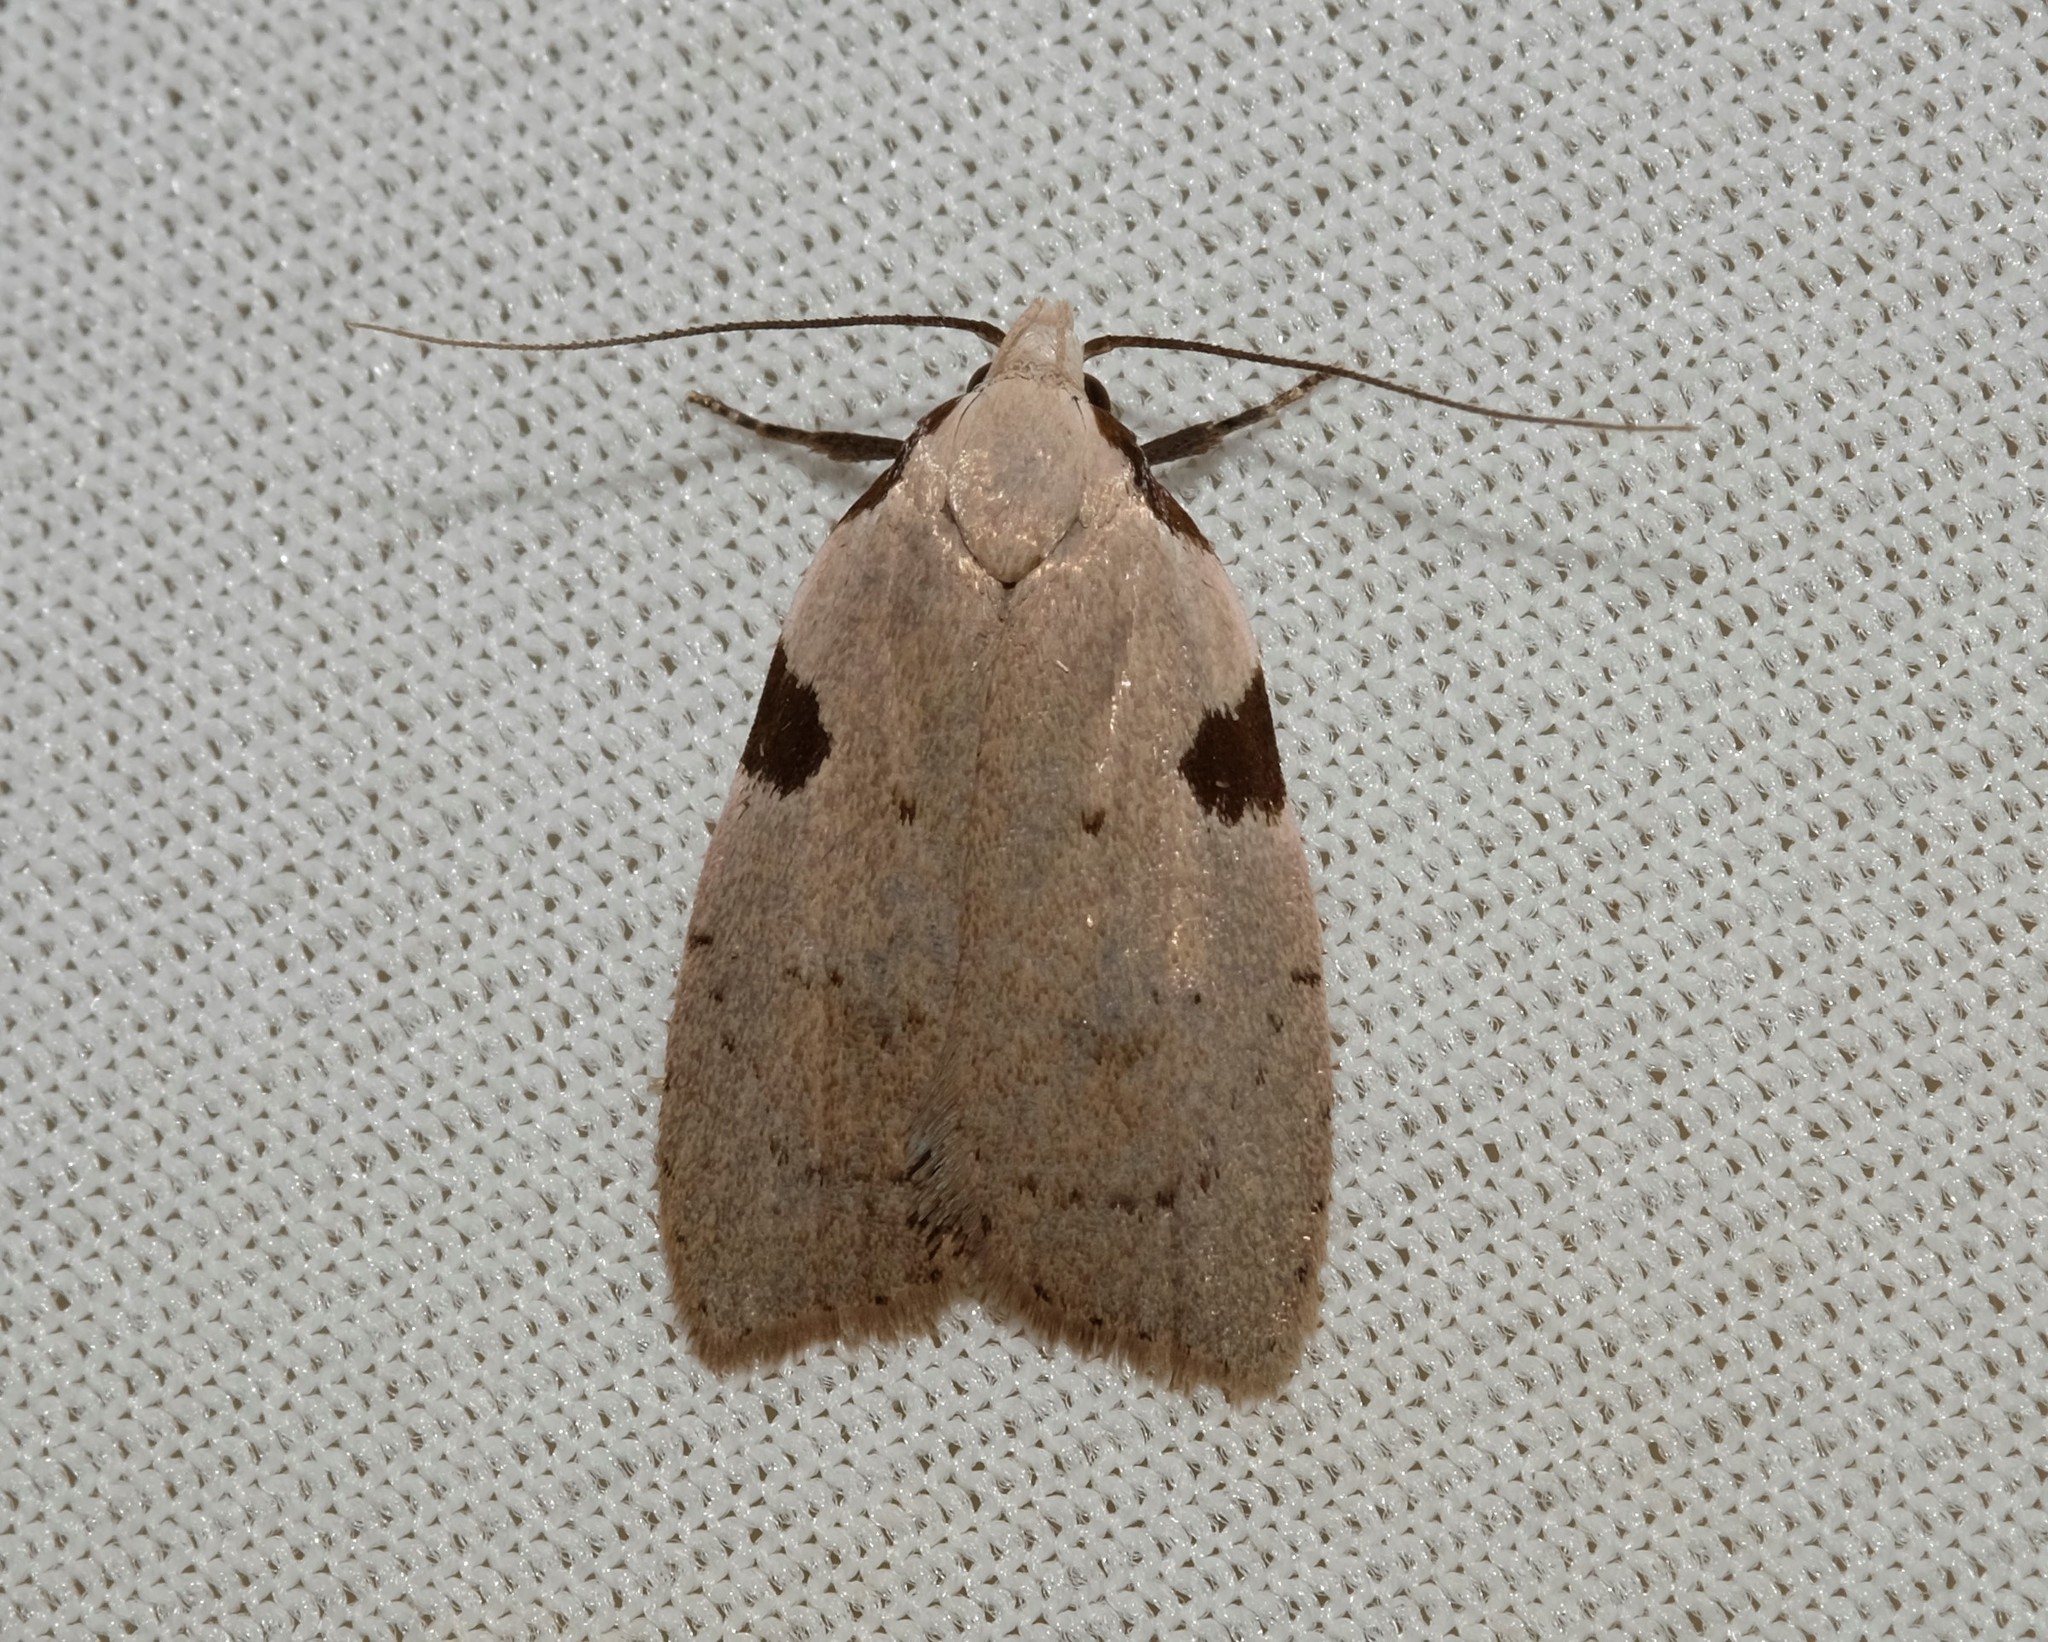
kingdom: Animalia
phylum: Arthropoda
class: Insecta
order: Lepidoptera
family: Oecophoridae
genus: Zonopetala
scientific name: Zonopetala quadripustulella
